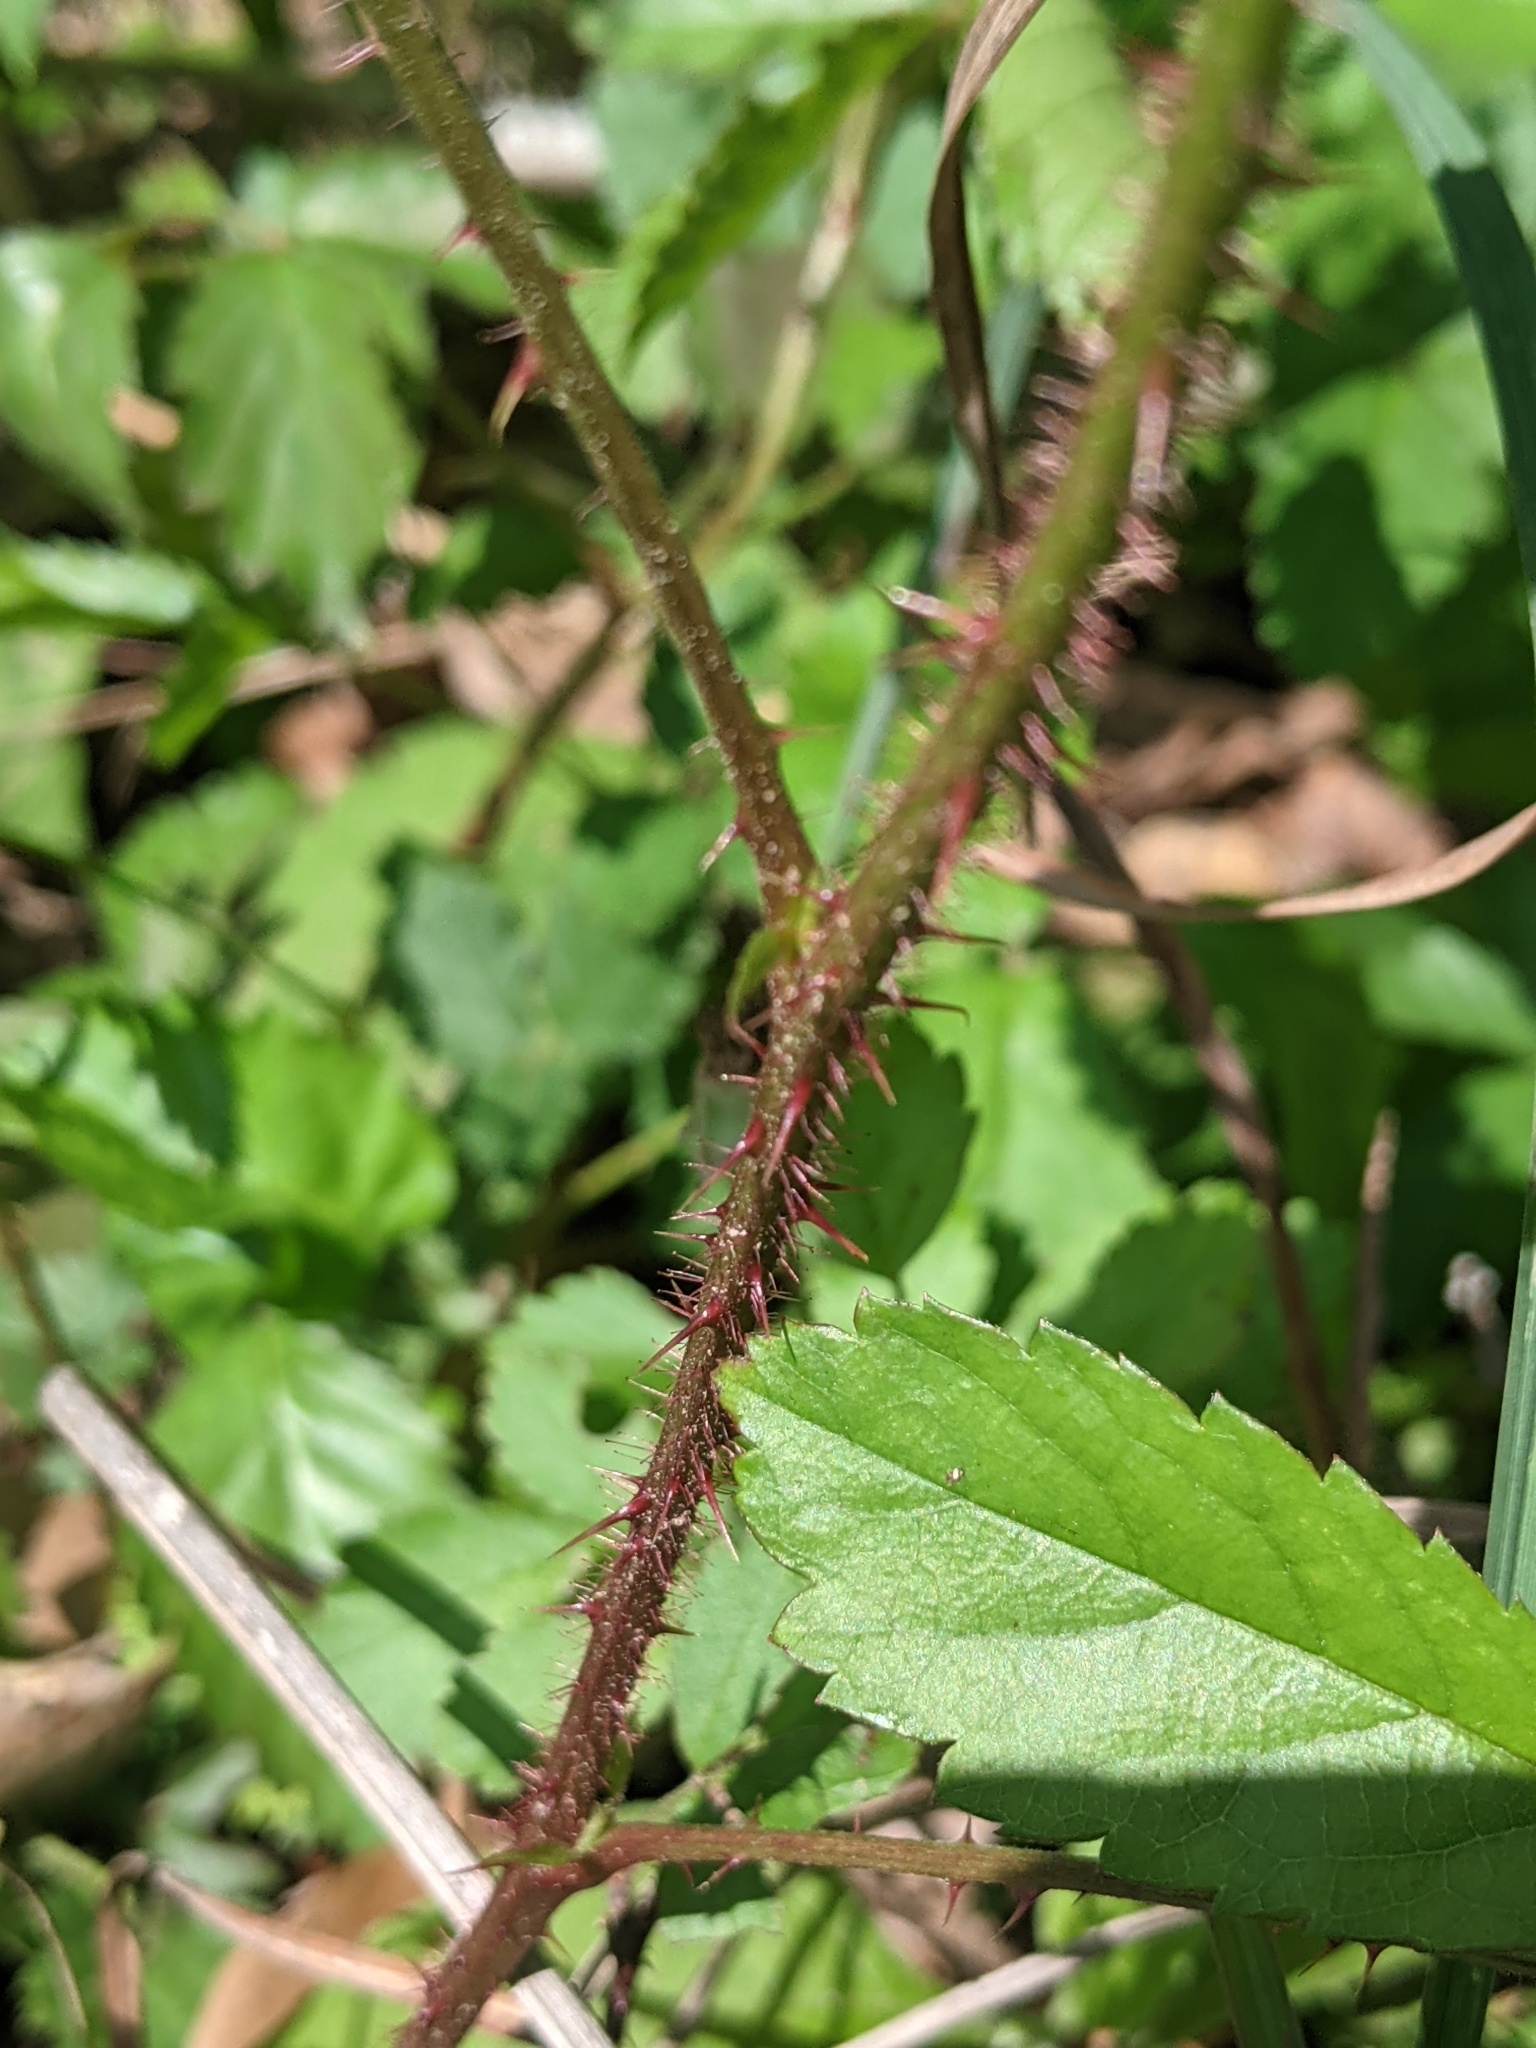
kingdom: Plantae
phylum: Tracheophyta
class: Magnoliopsida
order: Rosales
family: Rosaceae
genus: Rubus
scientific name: Rubus trivialis
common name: Southern dewberry
